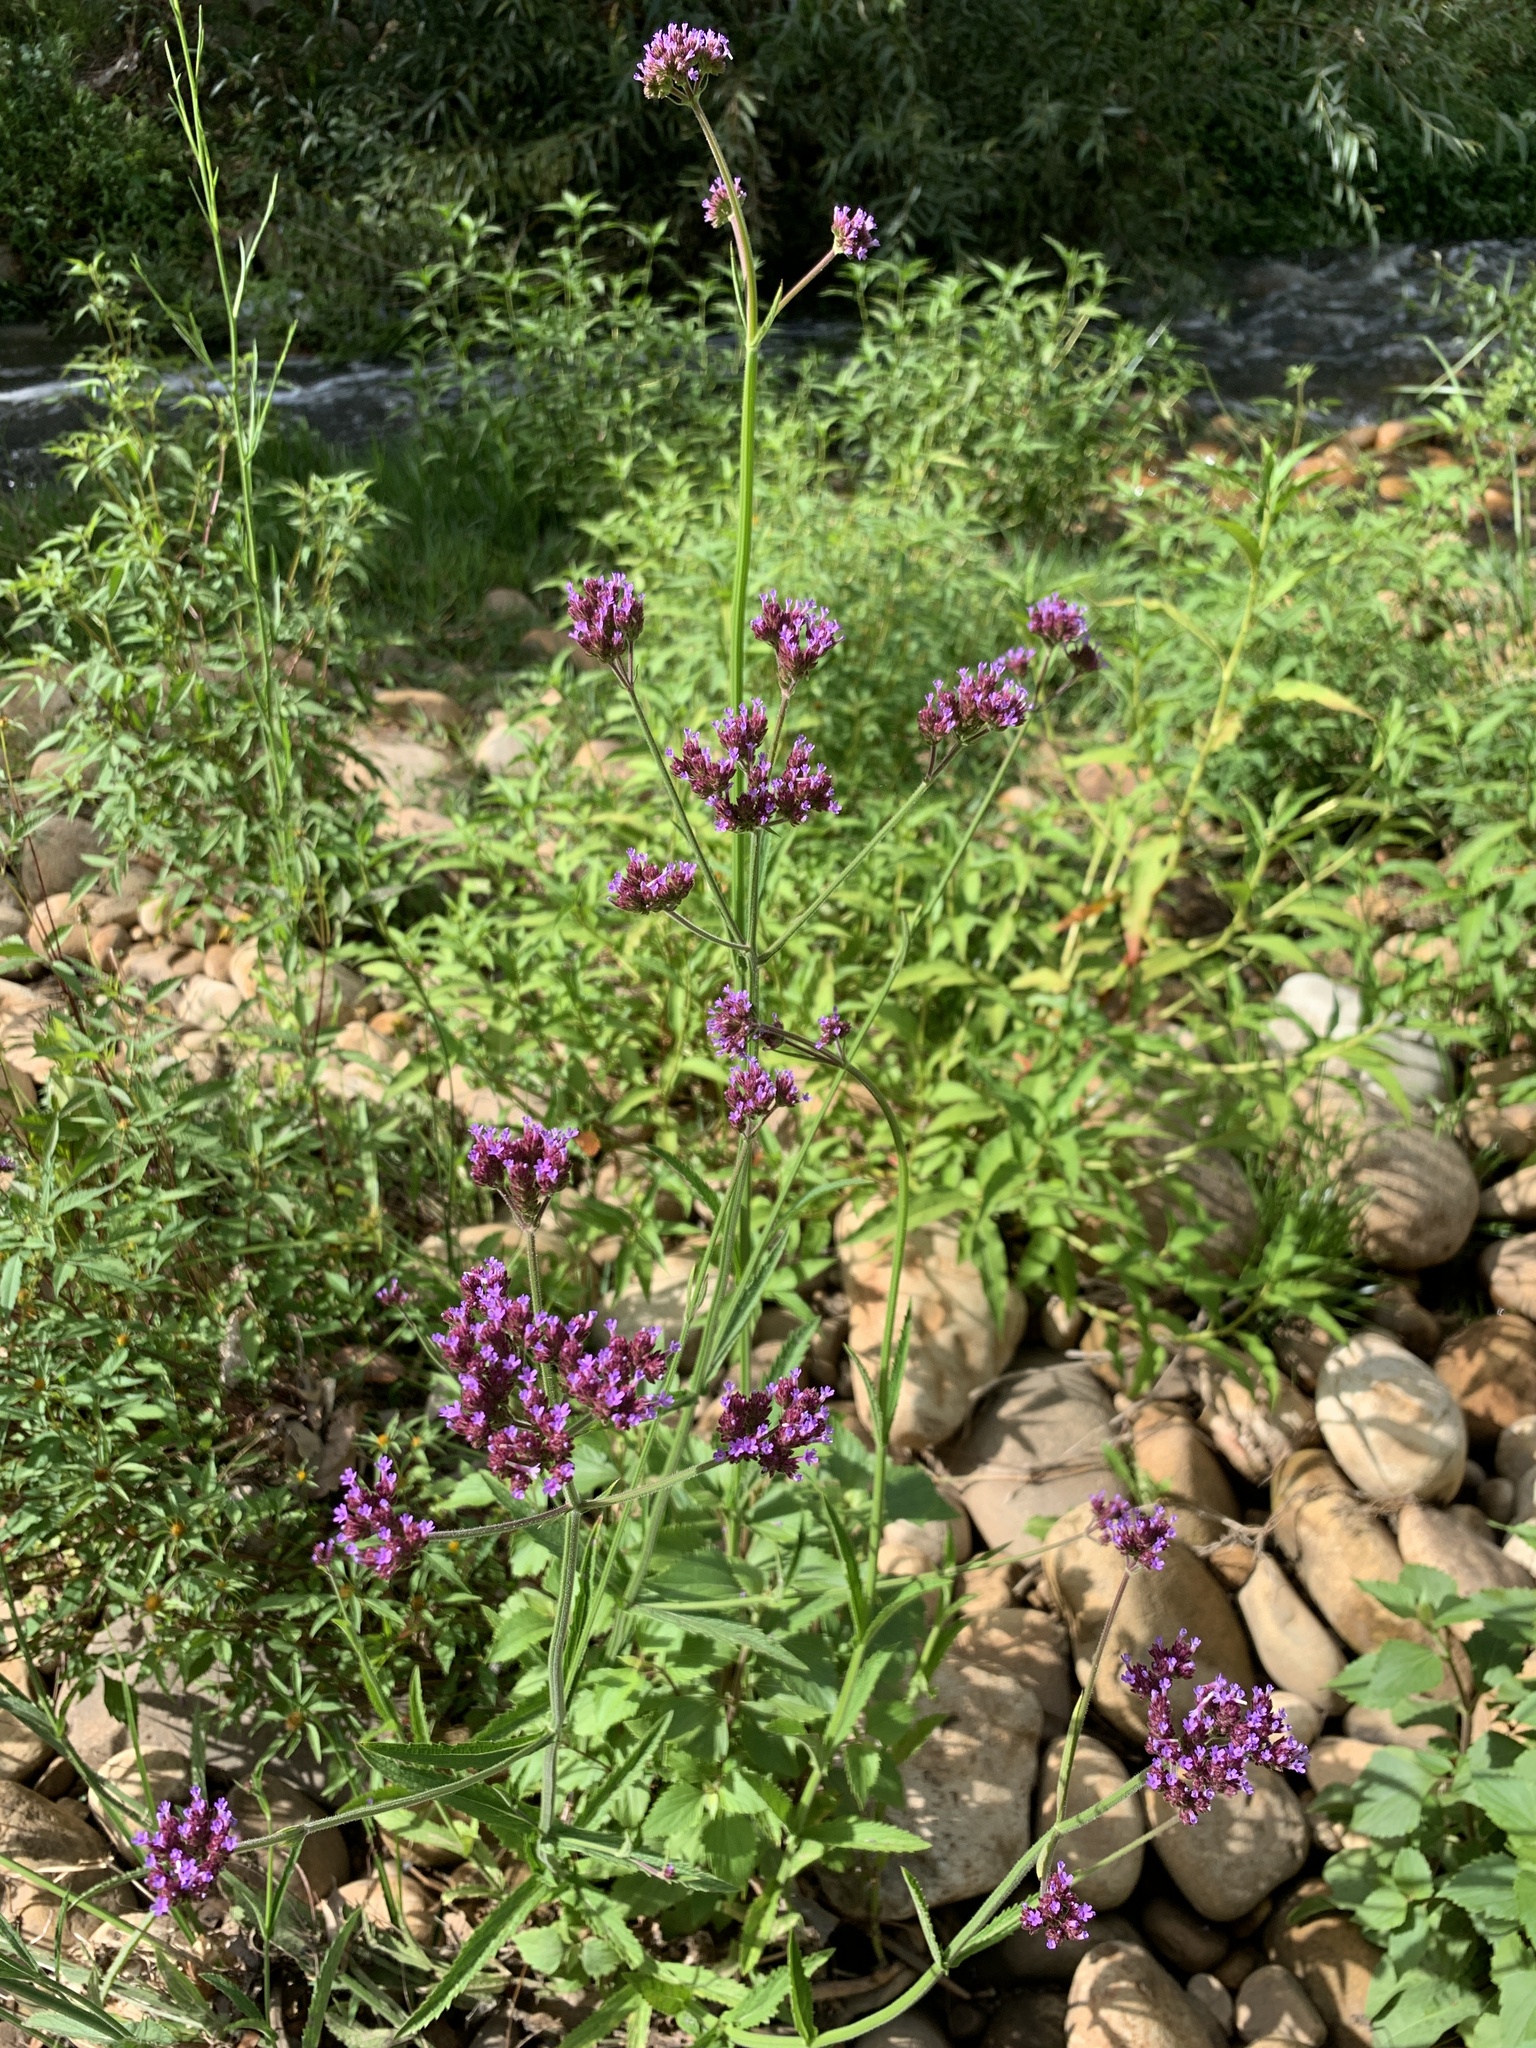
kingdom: Plantae
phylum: Tracheophyta
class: Magnoliopsida
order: Lamiales
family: Verbenaceae
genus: Verbena
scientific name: Verbena bonariensis
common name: Purpletop vervain
